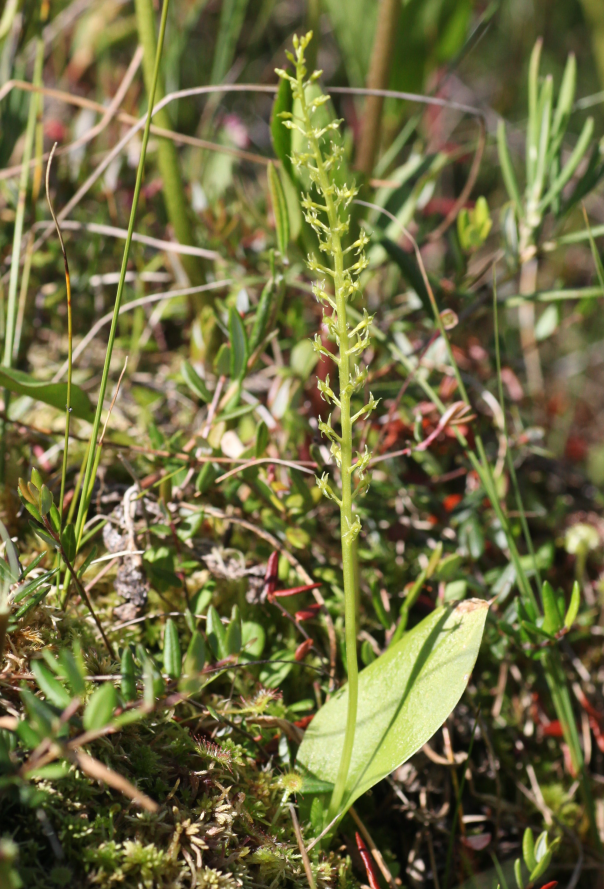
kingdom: Plantae
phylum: Tracheophyta
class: Liliopsida
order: Asparagales
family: Orchidaceae
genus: Malaxis
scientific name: Malaxis monophyllos
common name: White adder's-mouth
